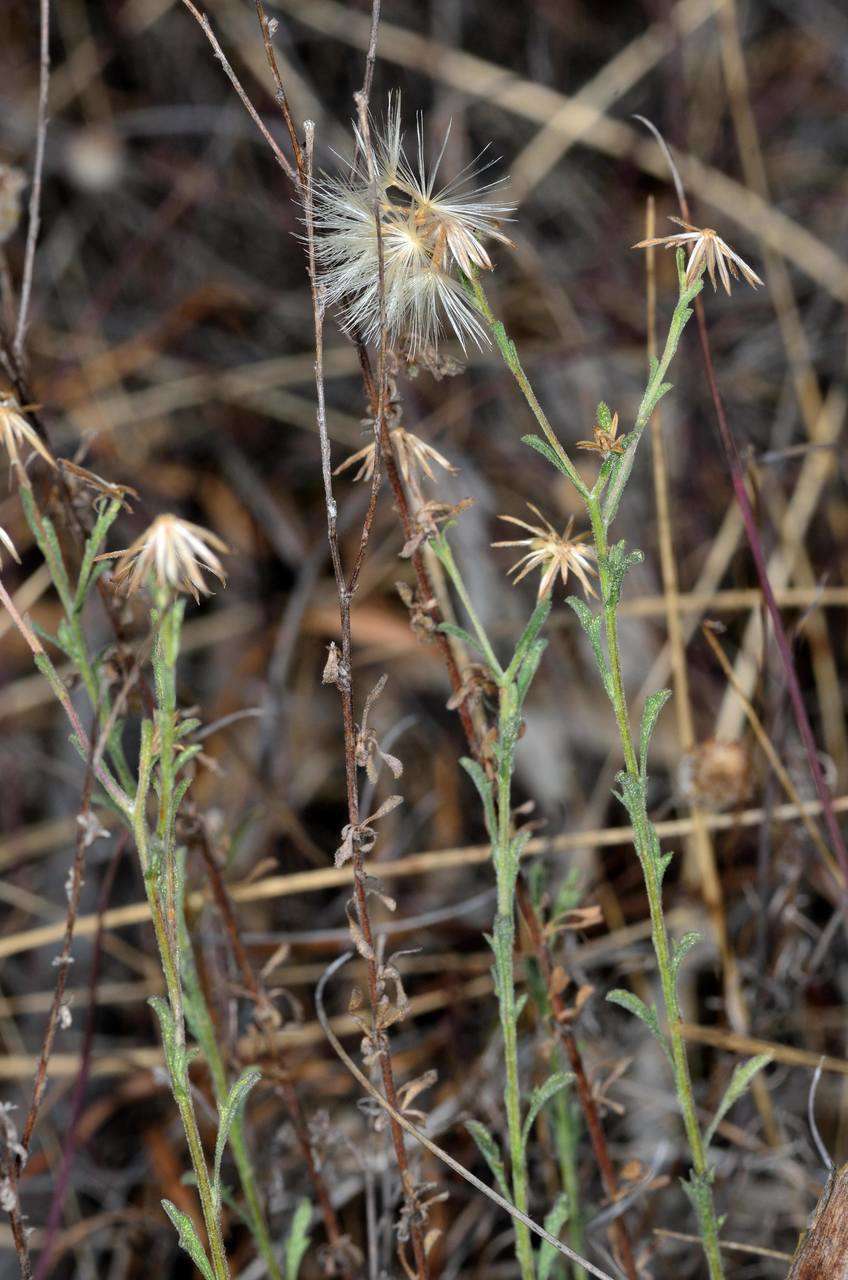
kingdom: Plantae
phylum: Tracheophyta
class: Magnoliopsida
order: Asterales
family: Asteraceae
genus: Vittadinia
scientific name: Vittadinia cuneata
